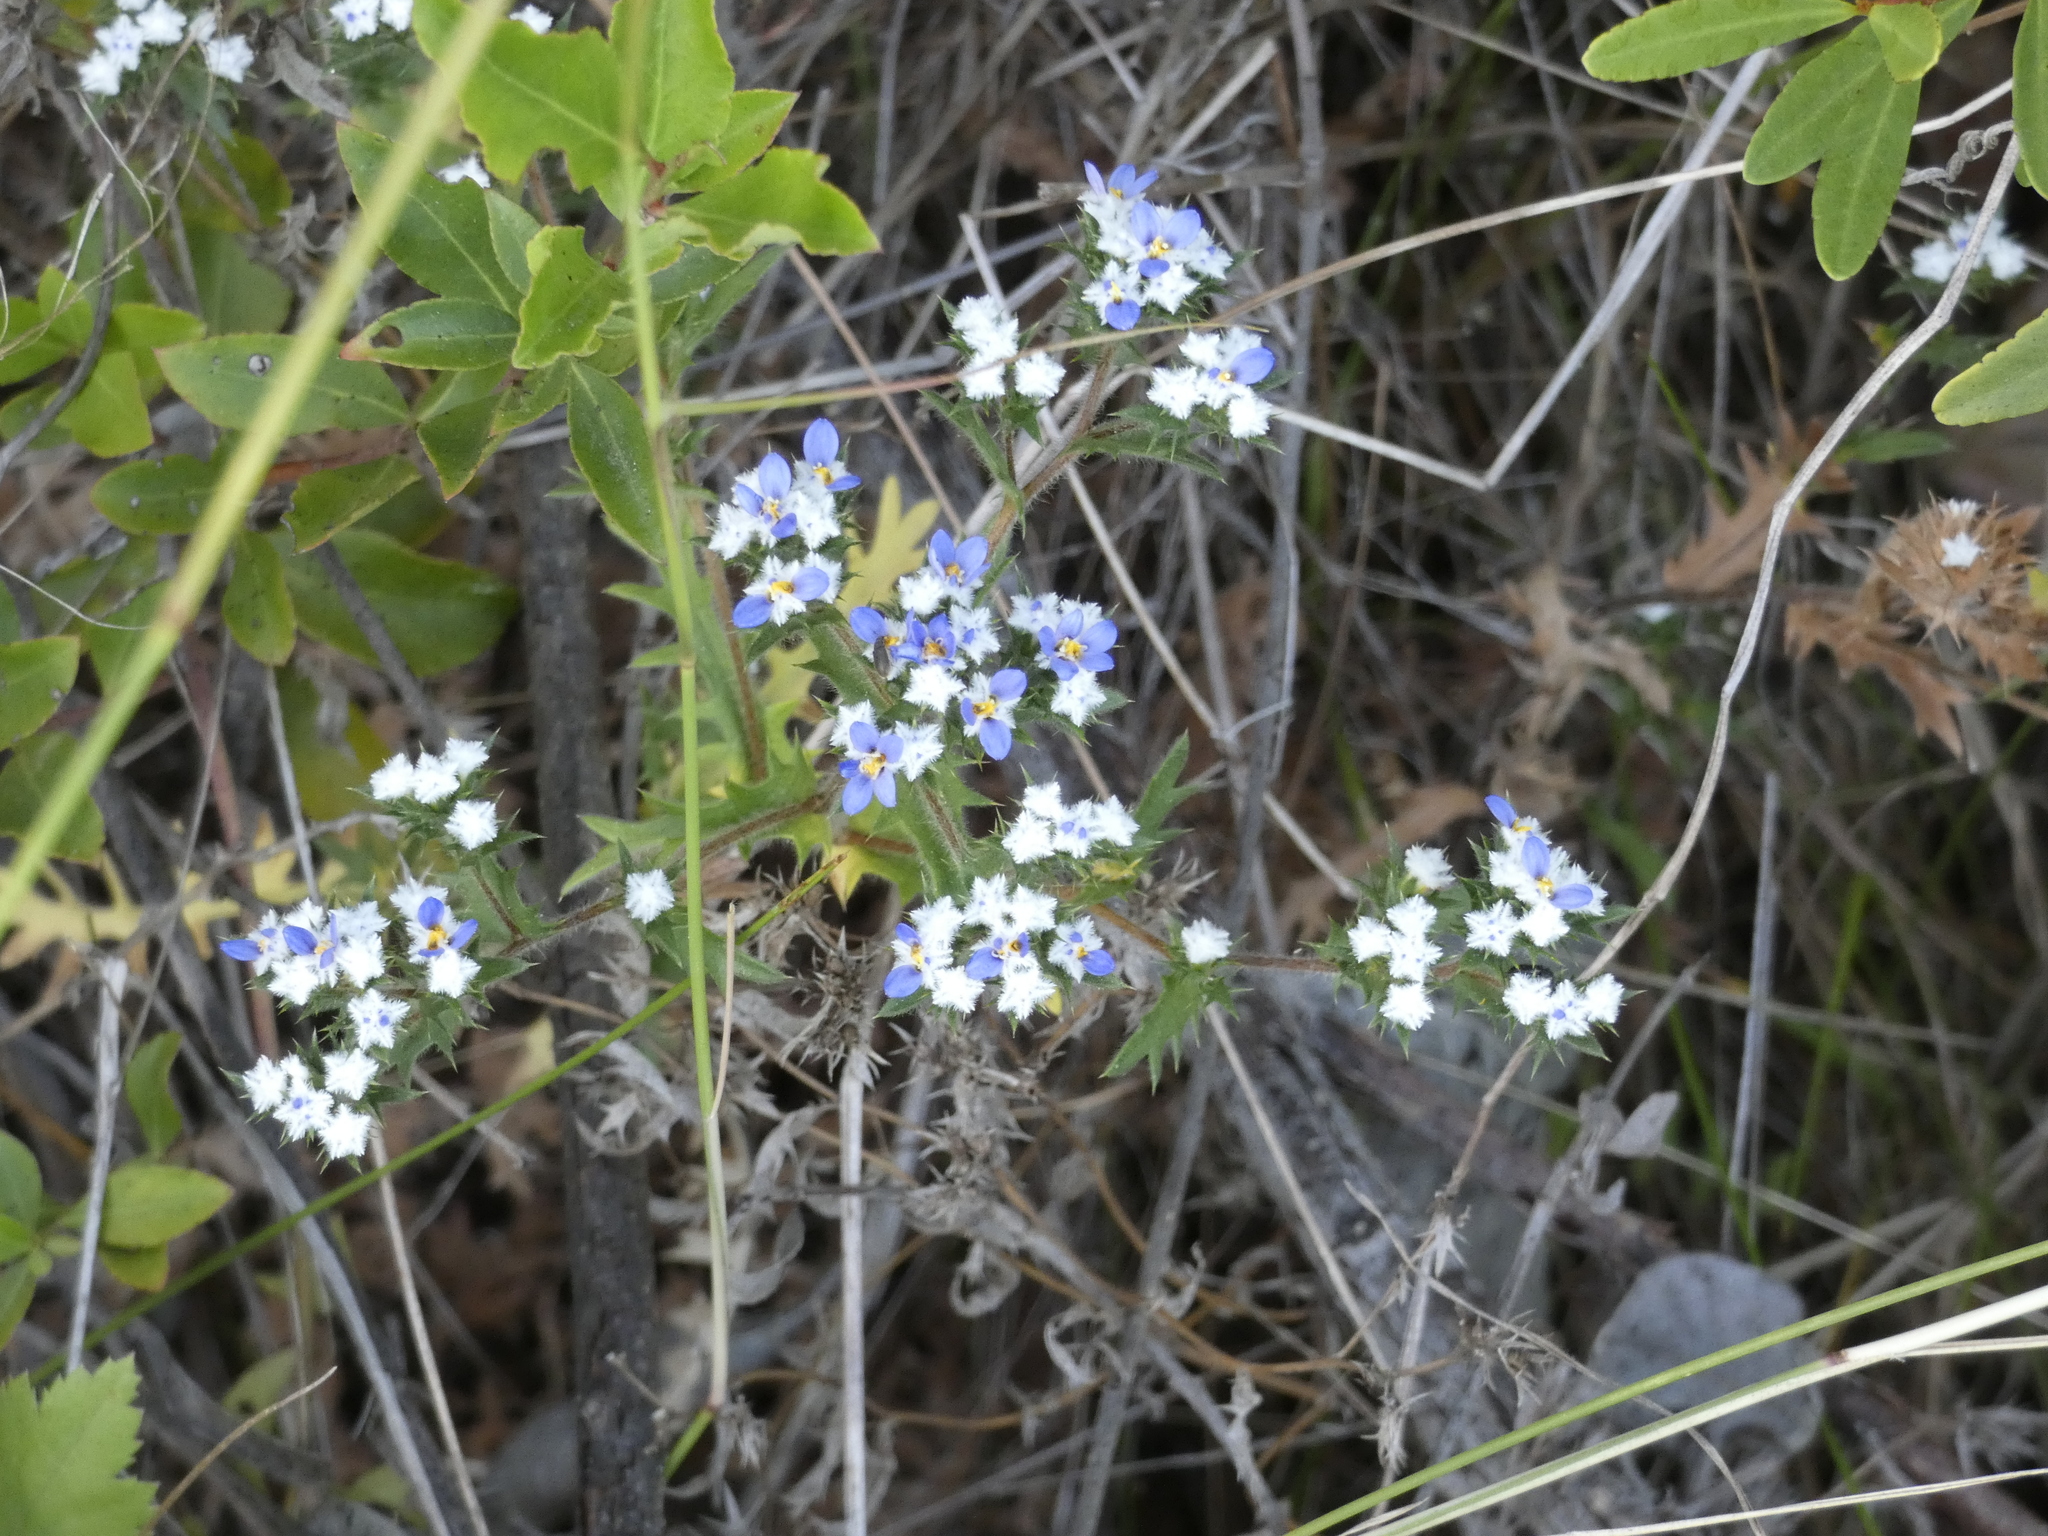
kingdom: Plantae
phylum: Tracheophyta
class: Magnoliopsida
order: Asterales
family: Asteraceae
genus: Triptilion
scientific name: Triptilion spinosum
